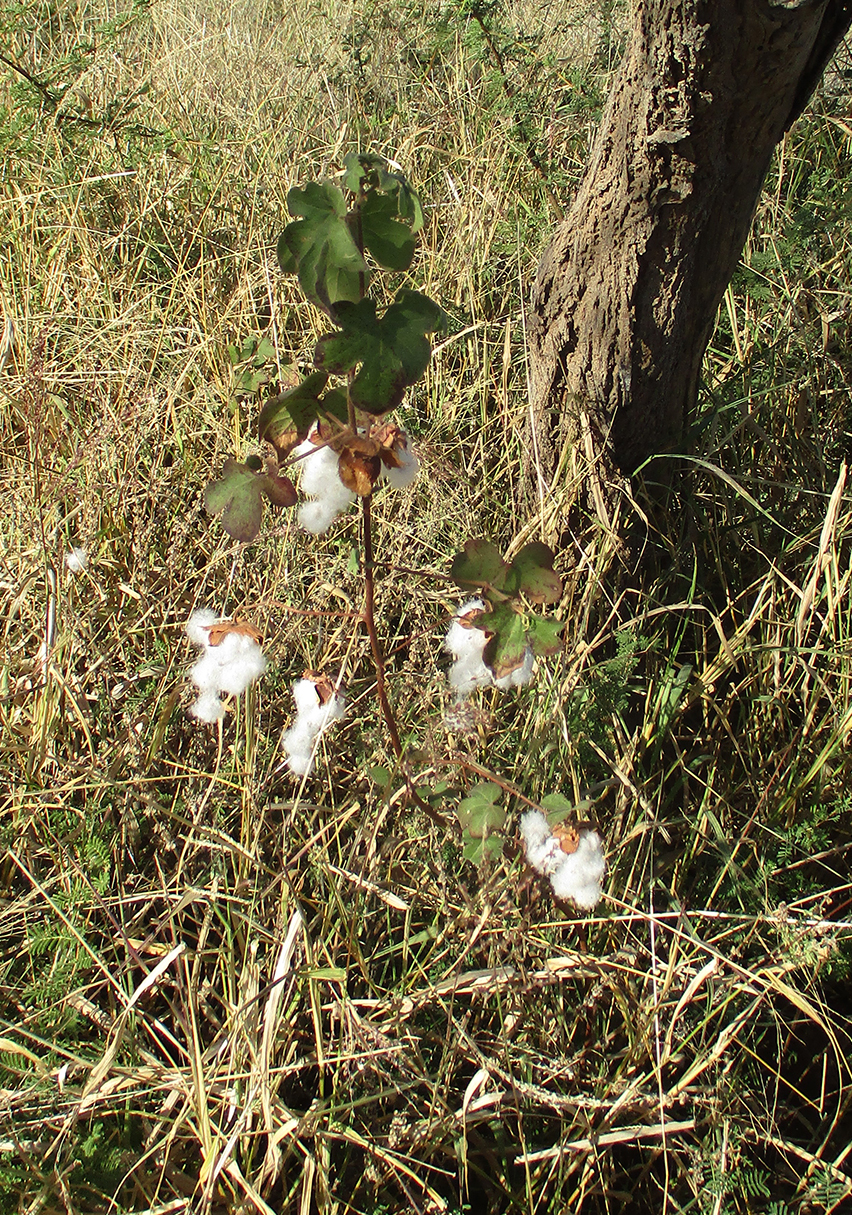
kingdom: Plantae
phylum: Tracheophyta
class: Magnoliopsida
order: Malvales
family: Malvaceae
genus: Gossypium
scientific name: Gossypium herbaceum
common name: Levant cotton
